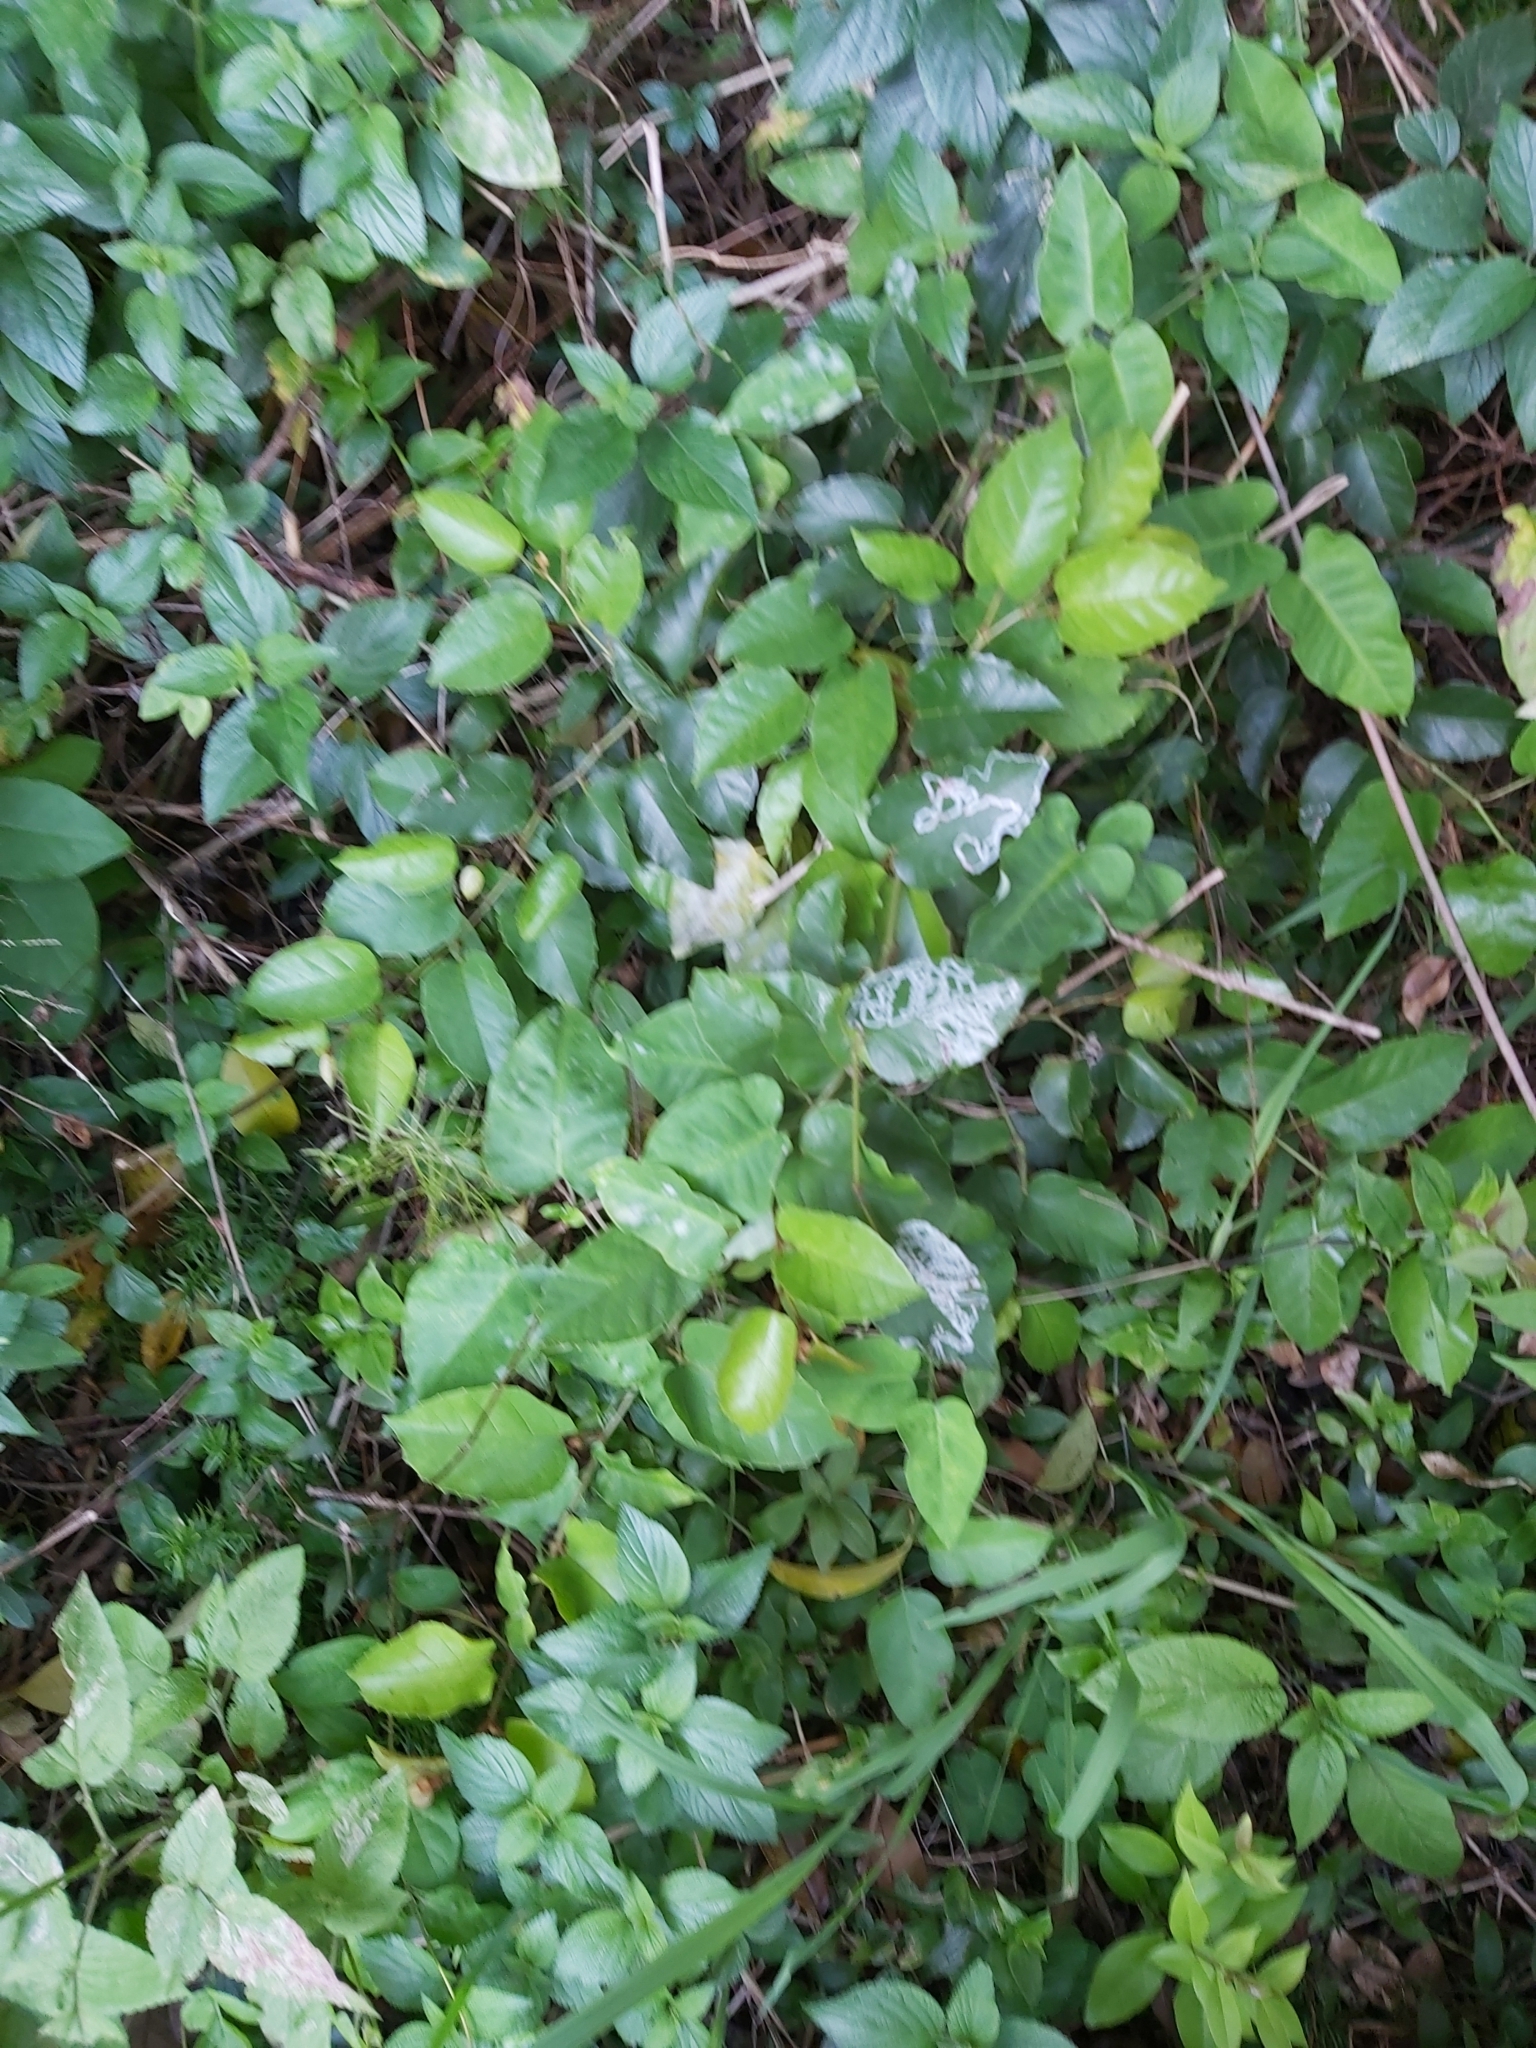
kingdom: Plantae
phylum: Tracheophyta
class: Magnoliopsida
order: Vitales
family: Vitaceae
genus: Cissus
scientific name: Cissus antarctica
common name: Kangaroo vine
